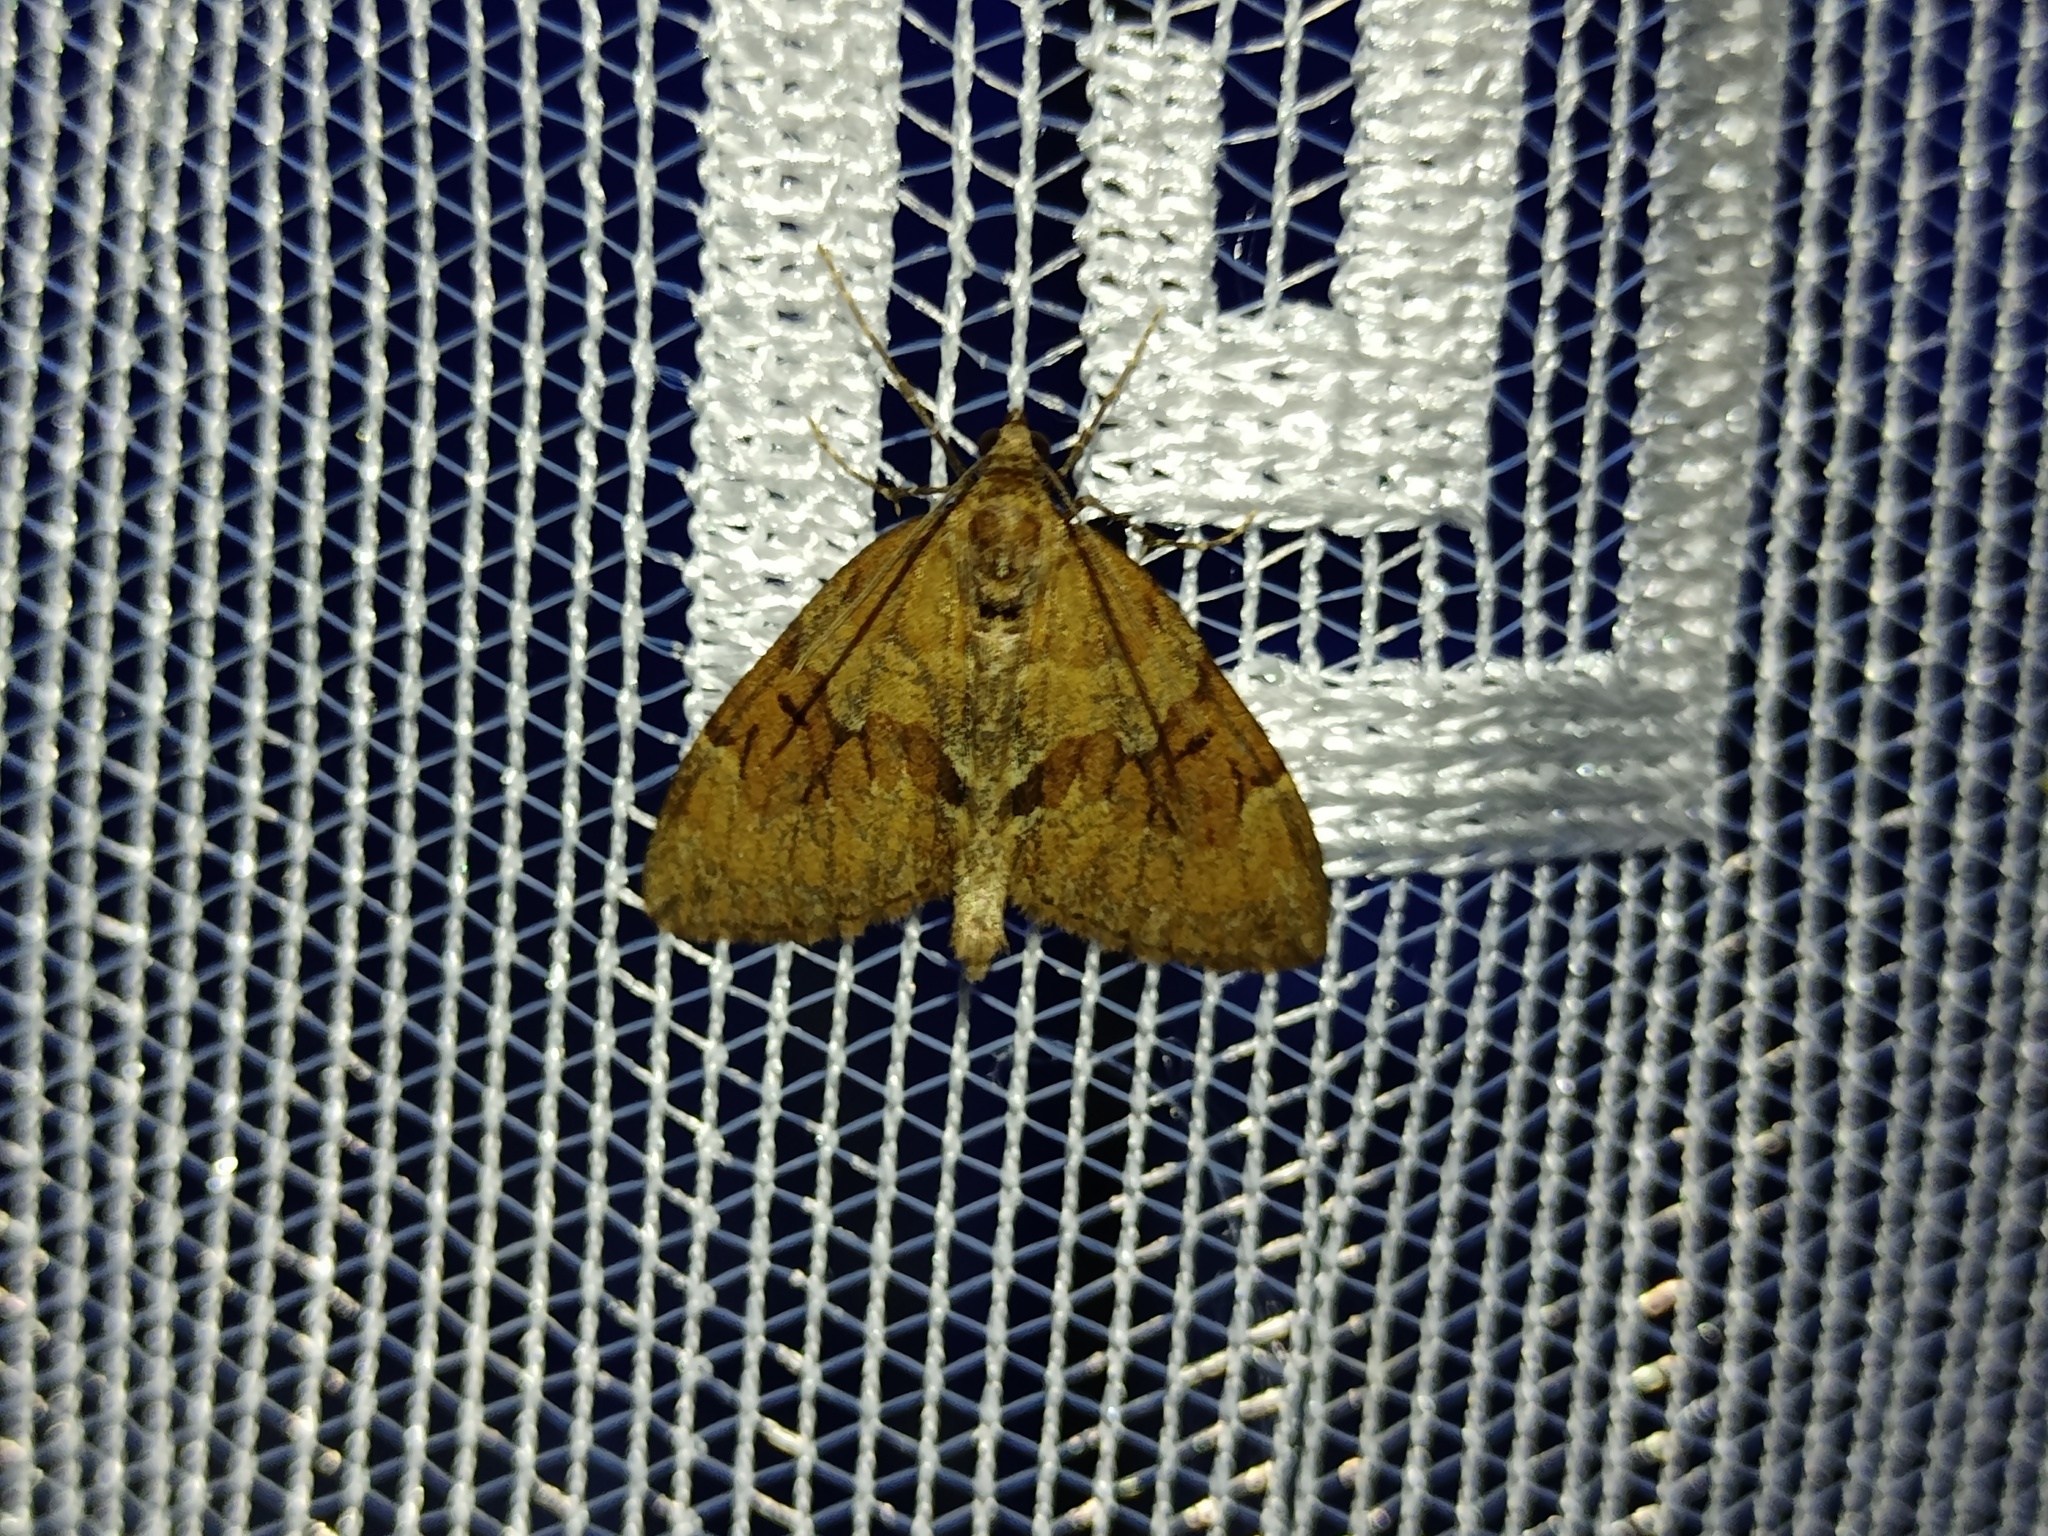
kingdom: Animalia
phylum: Arthropoda
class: Insecta
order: Lepidoptera
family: Geometridae
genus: Thera
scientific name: Thera obeliscata
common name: Grey pine carpet
